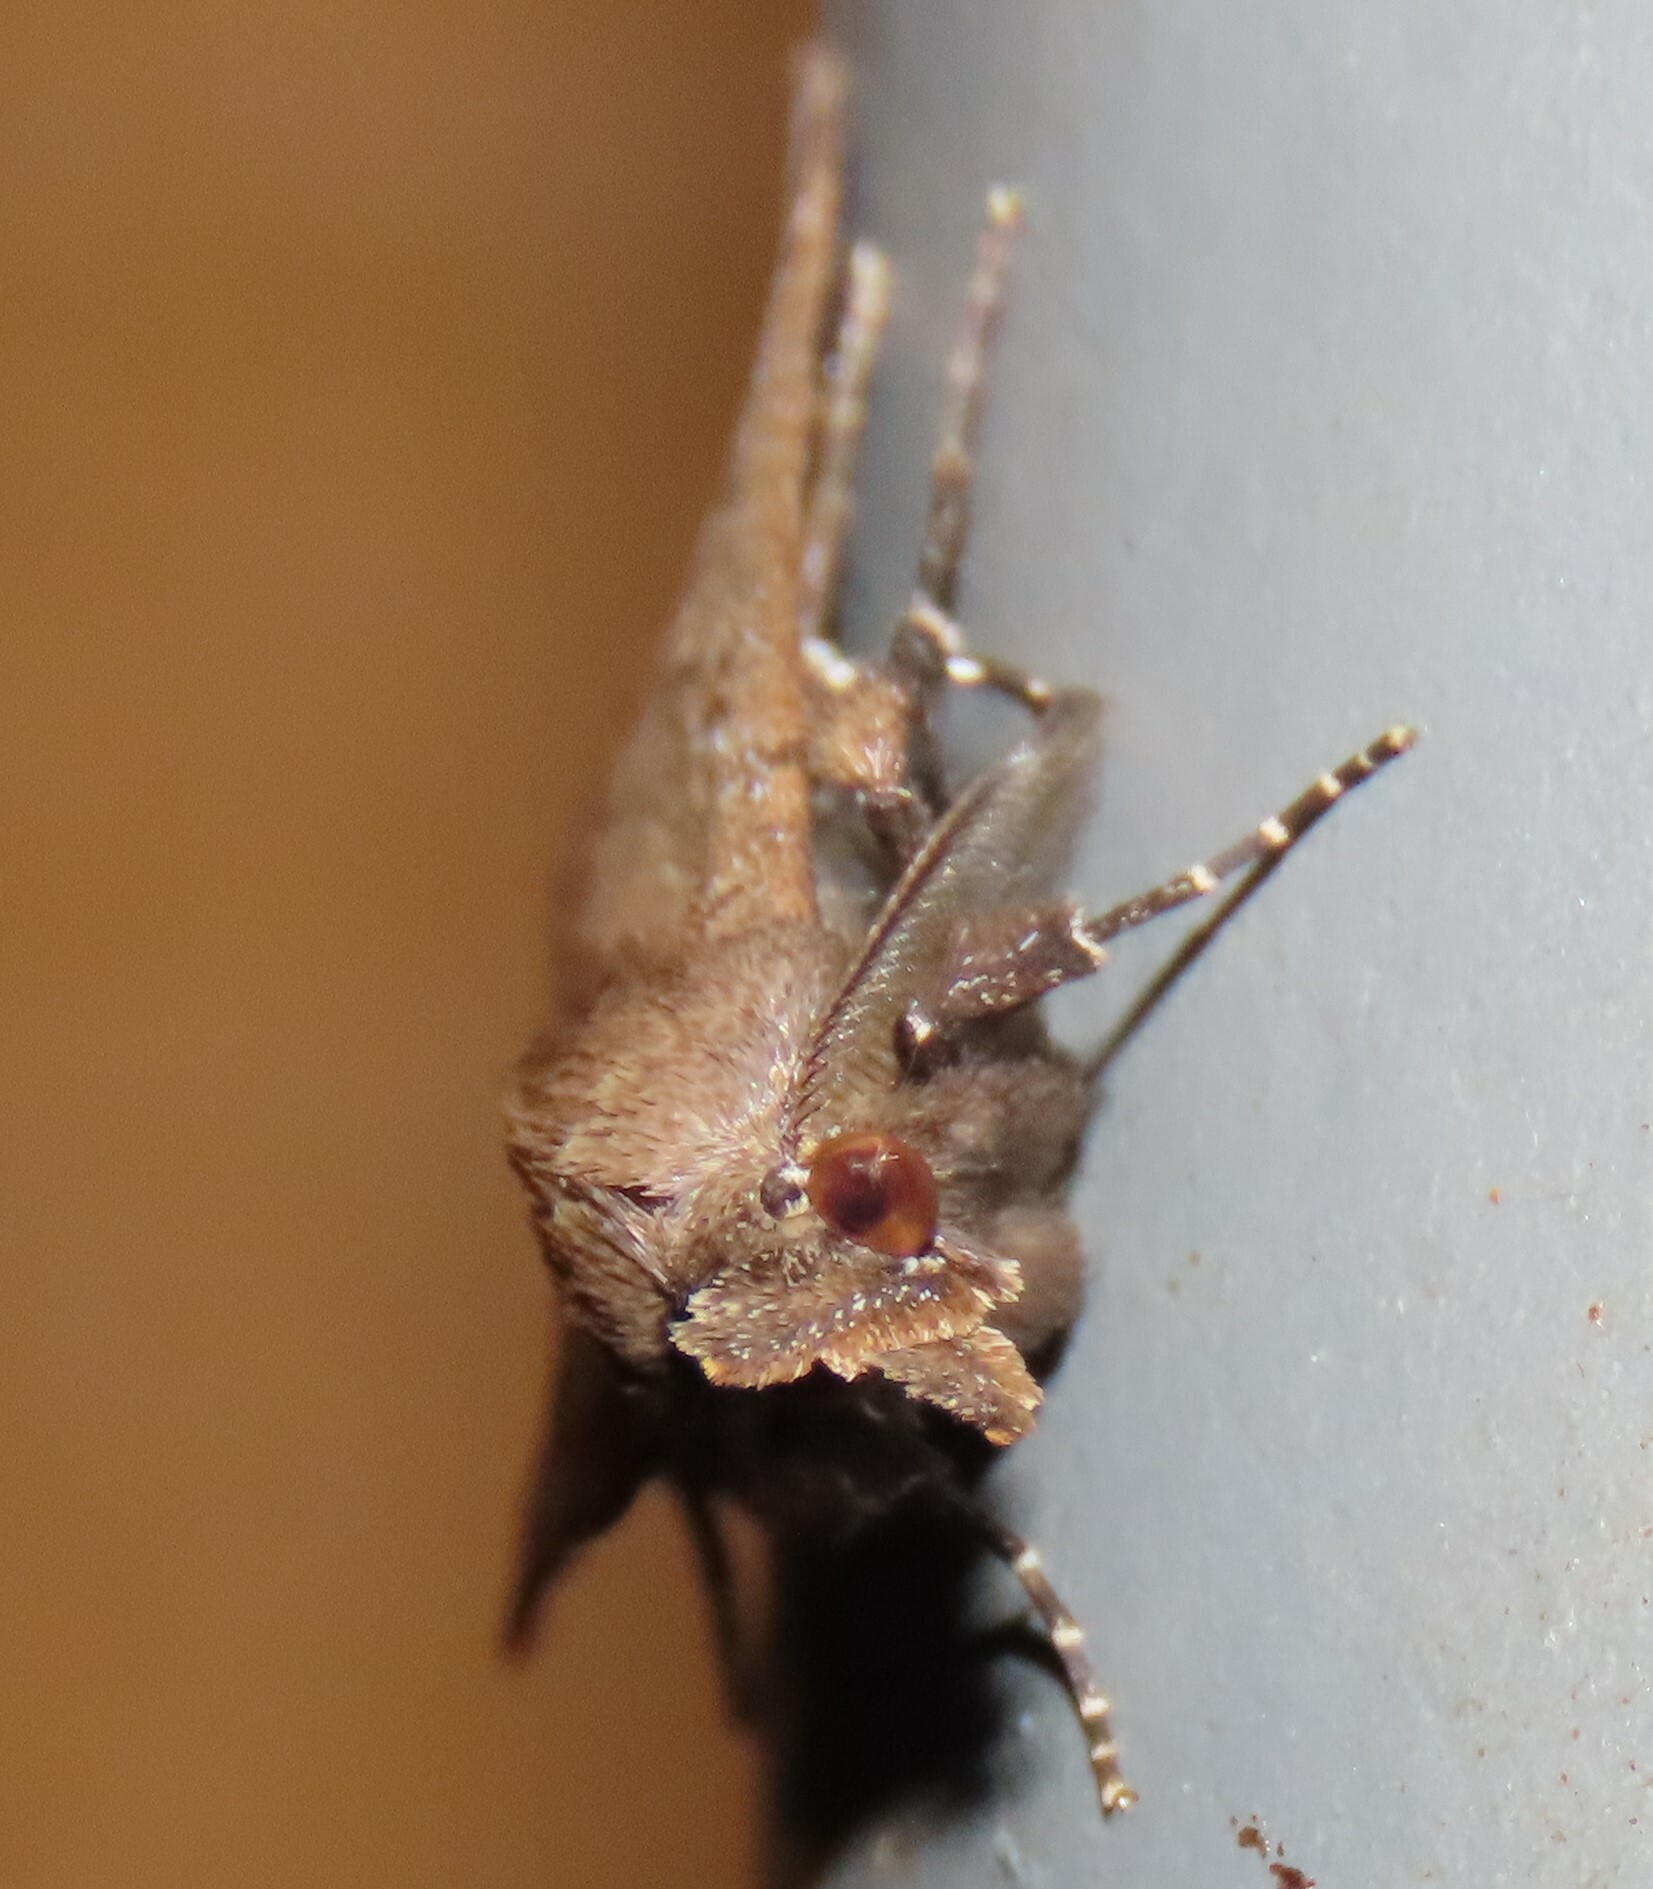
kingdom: Animalia
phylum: Arthropoda
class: Insecta
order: Lepidoptera
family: Erebidae
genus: Rhapsa
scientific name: Rhapsa scotosialis
